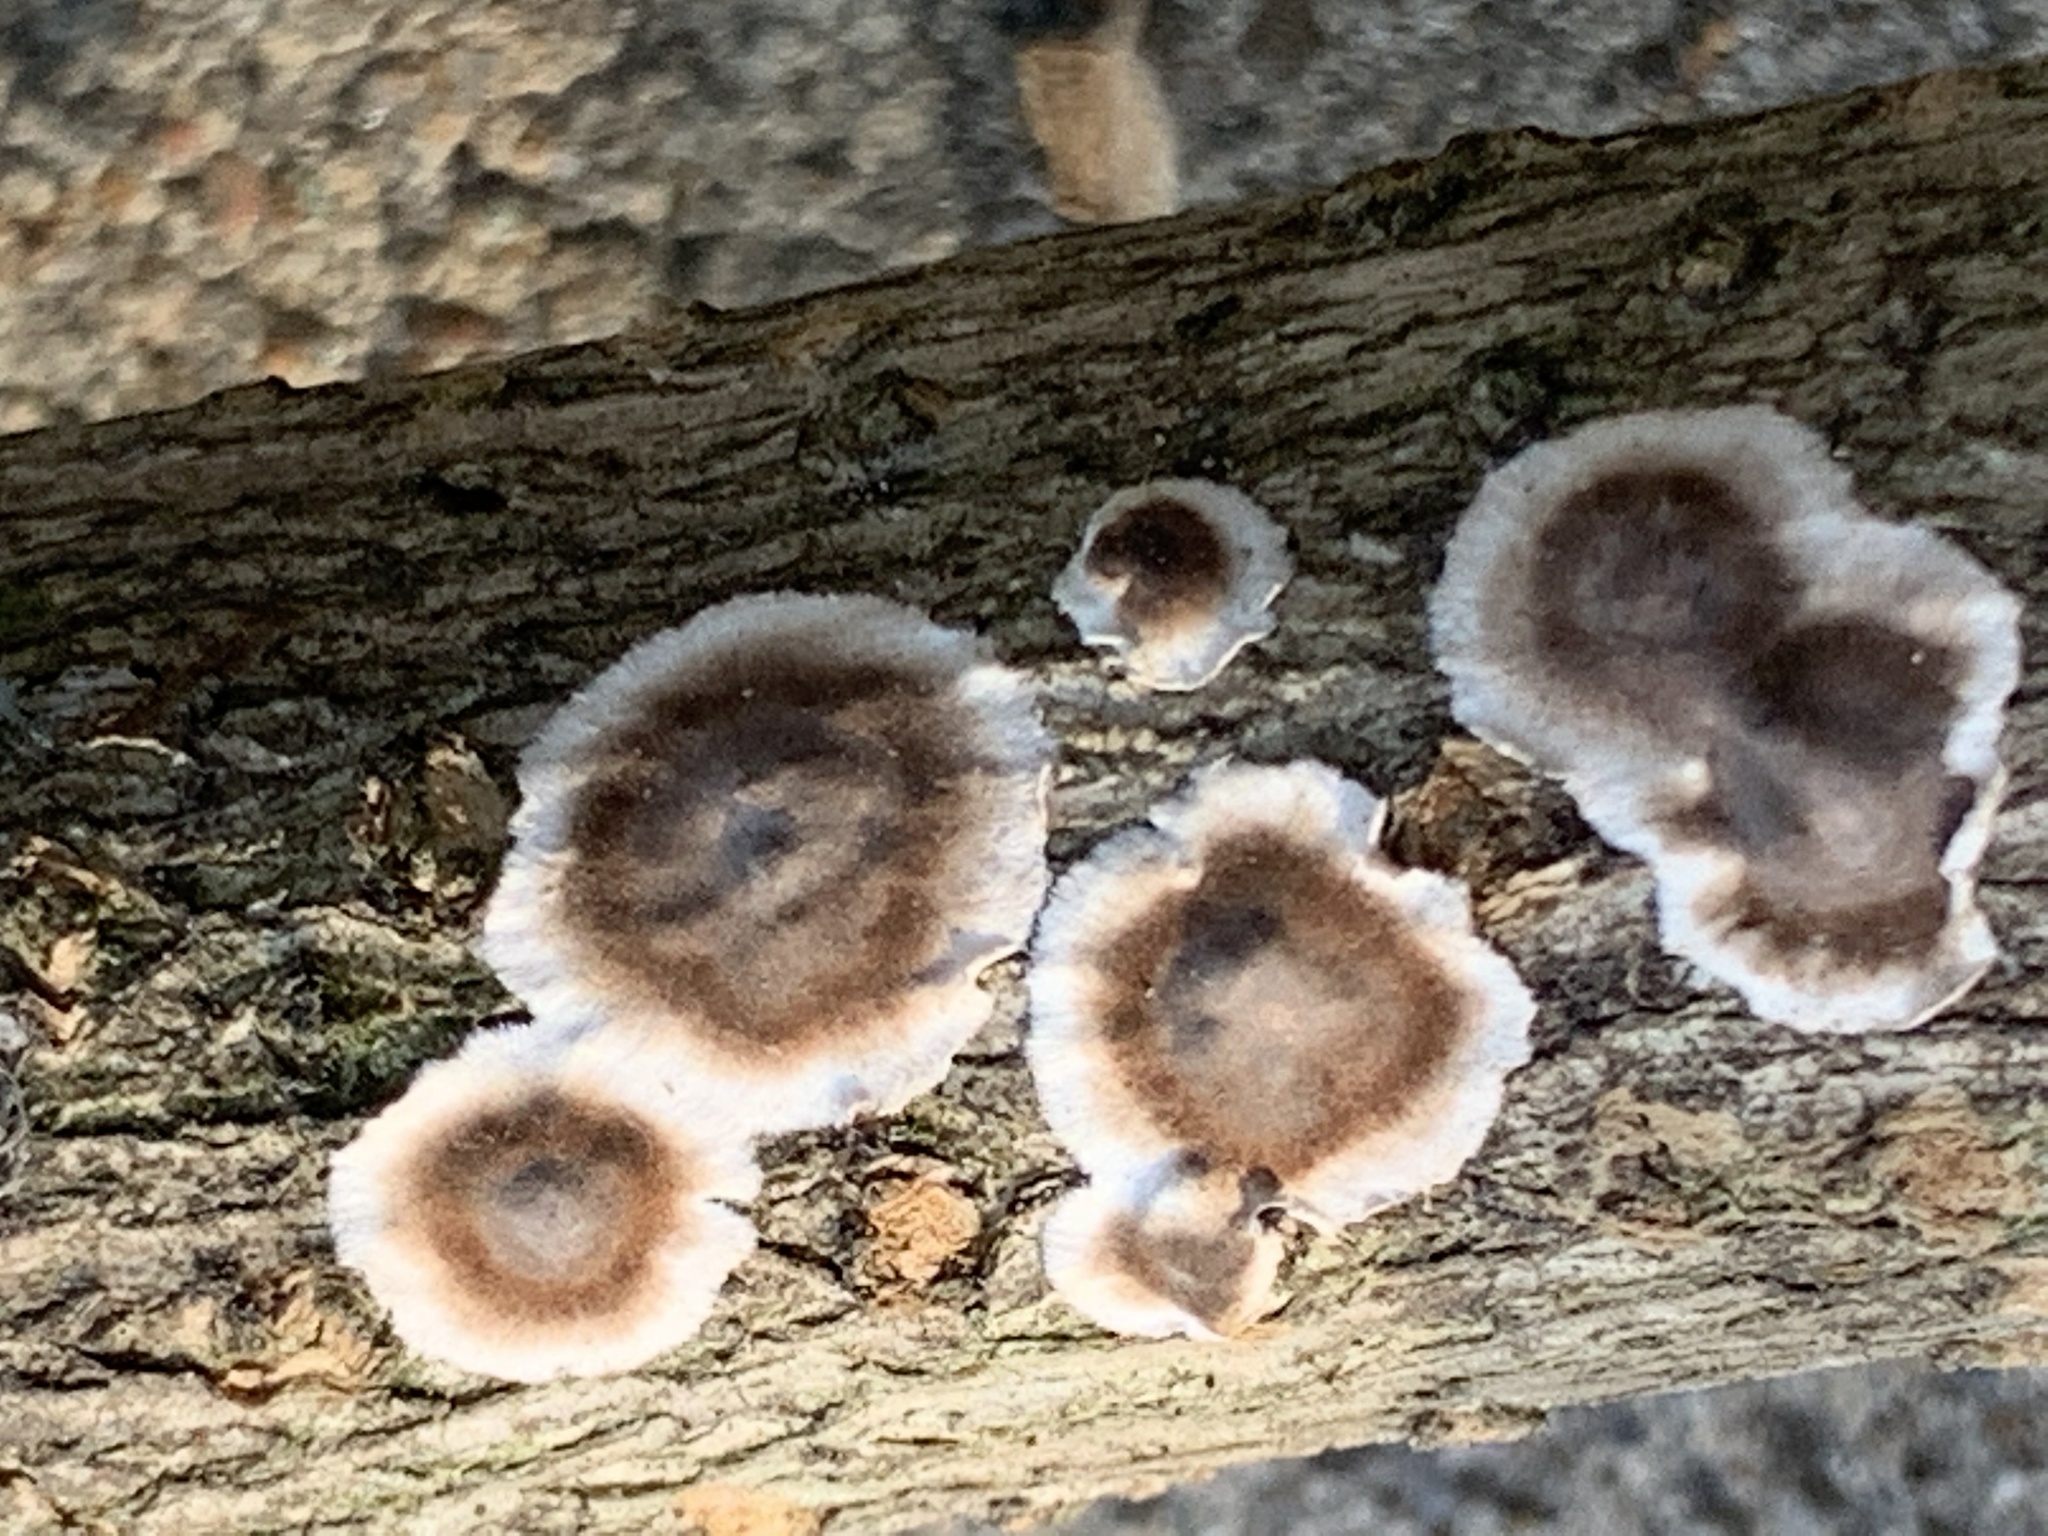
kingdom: Fungi
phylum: Basidiomycota
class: Agaricomycetes
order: Russulales
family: Peniophoraceae
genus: Peniophora
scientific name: Peniophora albobadia
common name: Giraffe spots
